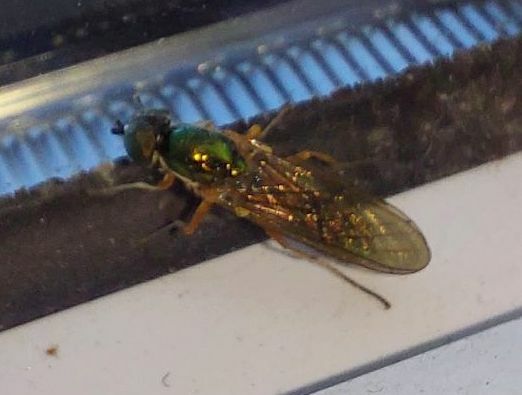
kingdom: Animalia
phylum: Arthropoda
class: Insecta
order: Diptera
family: Stratiomyidae
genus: Sargus
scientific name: Sargus bipunctatus
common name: Twin-spot centurion
